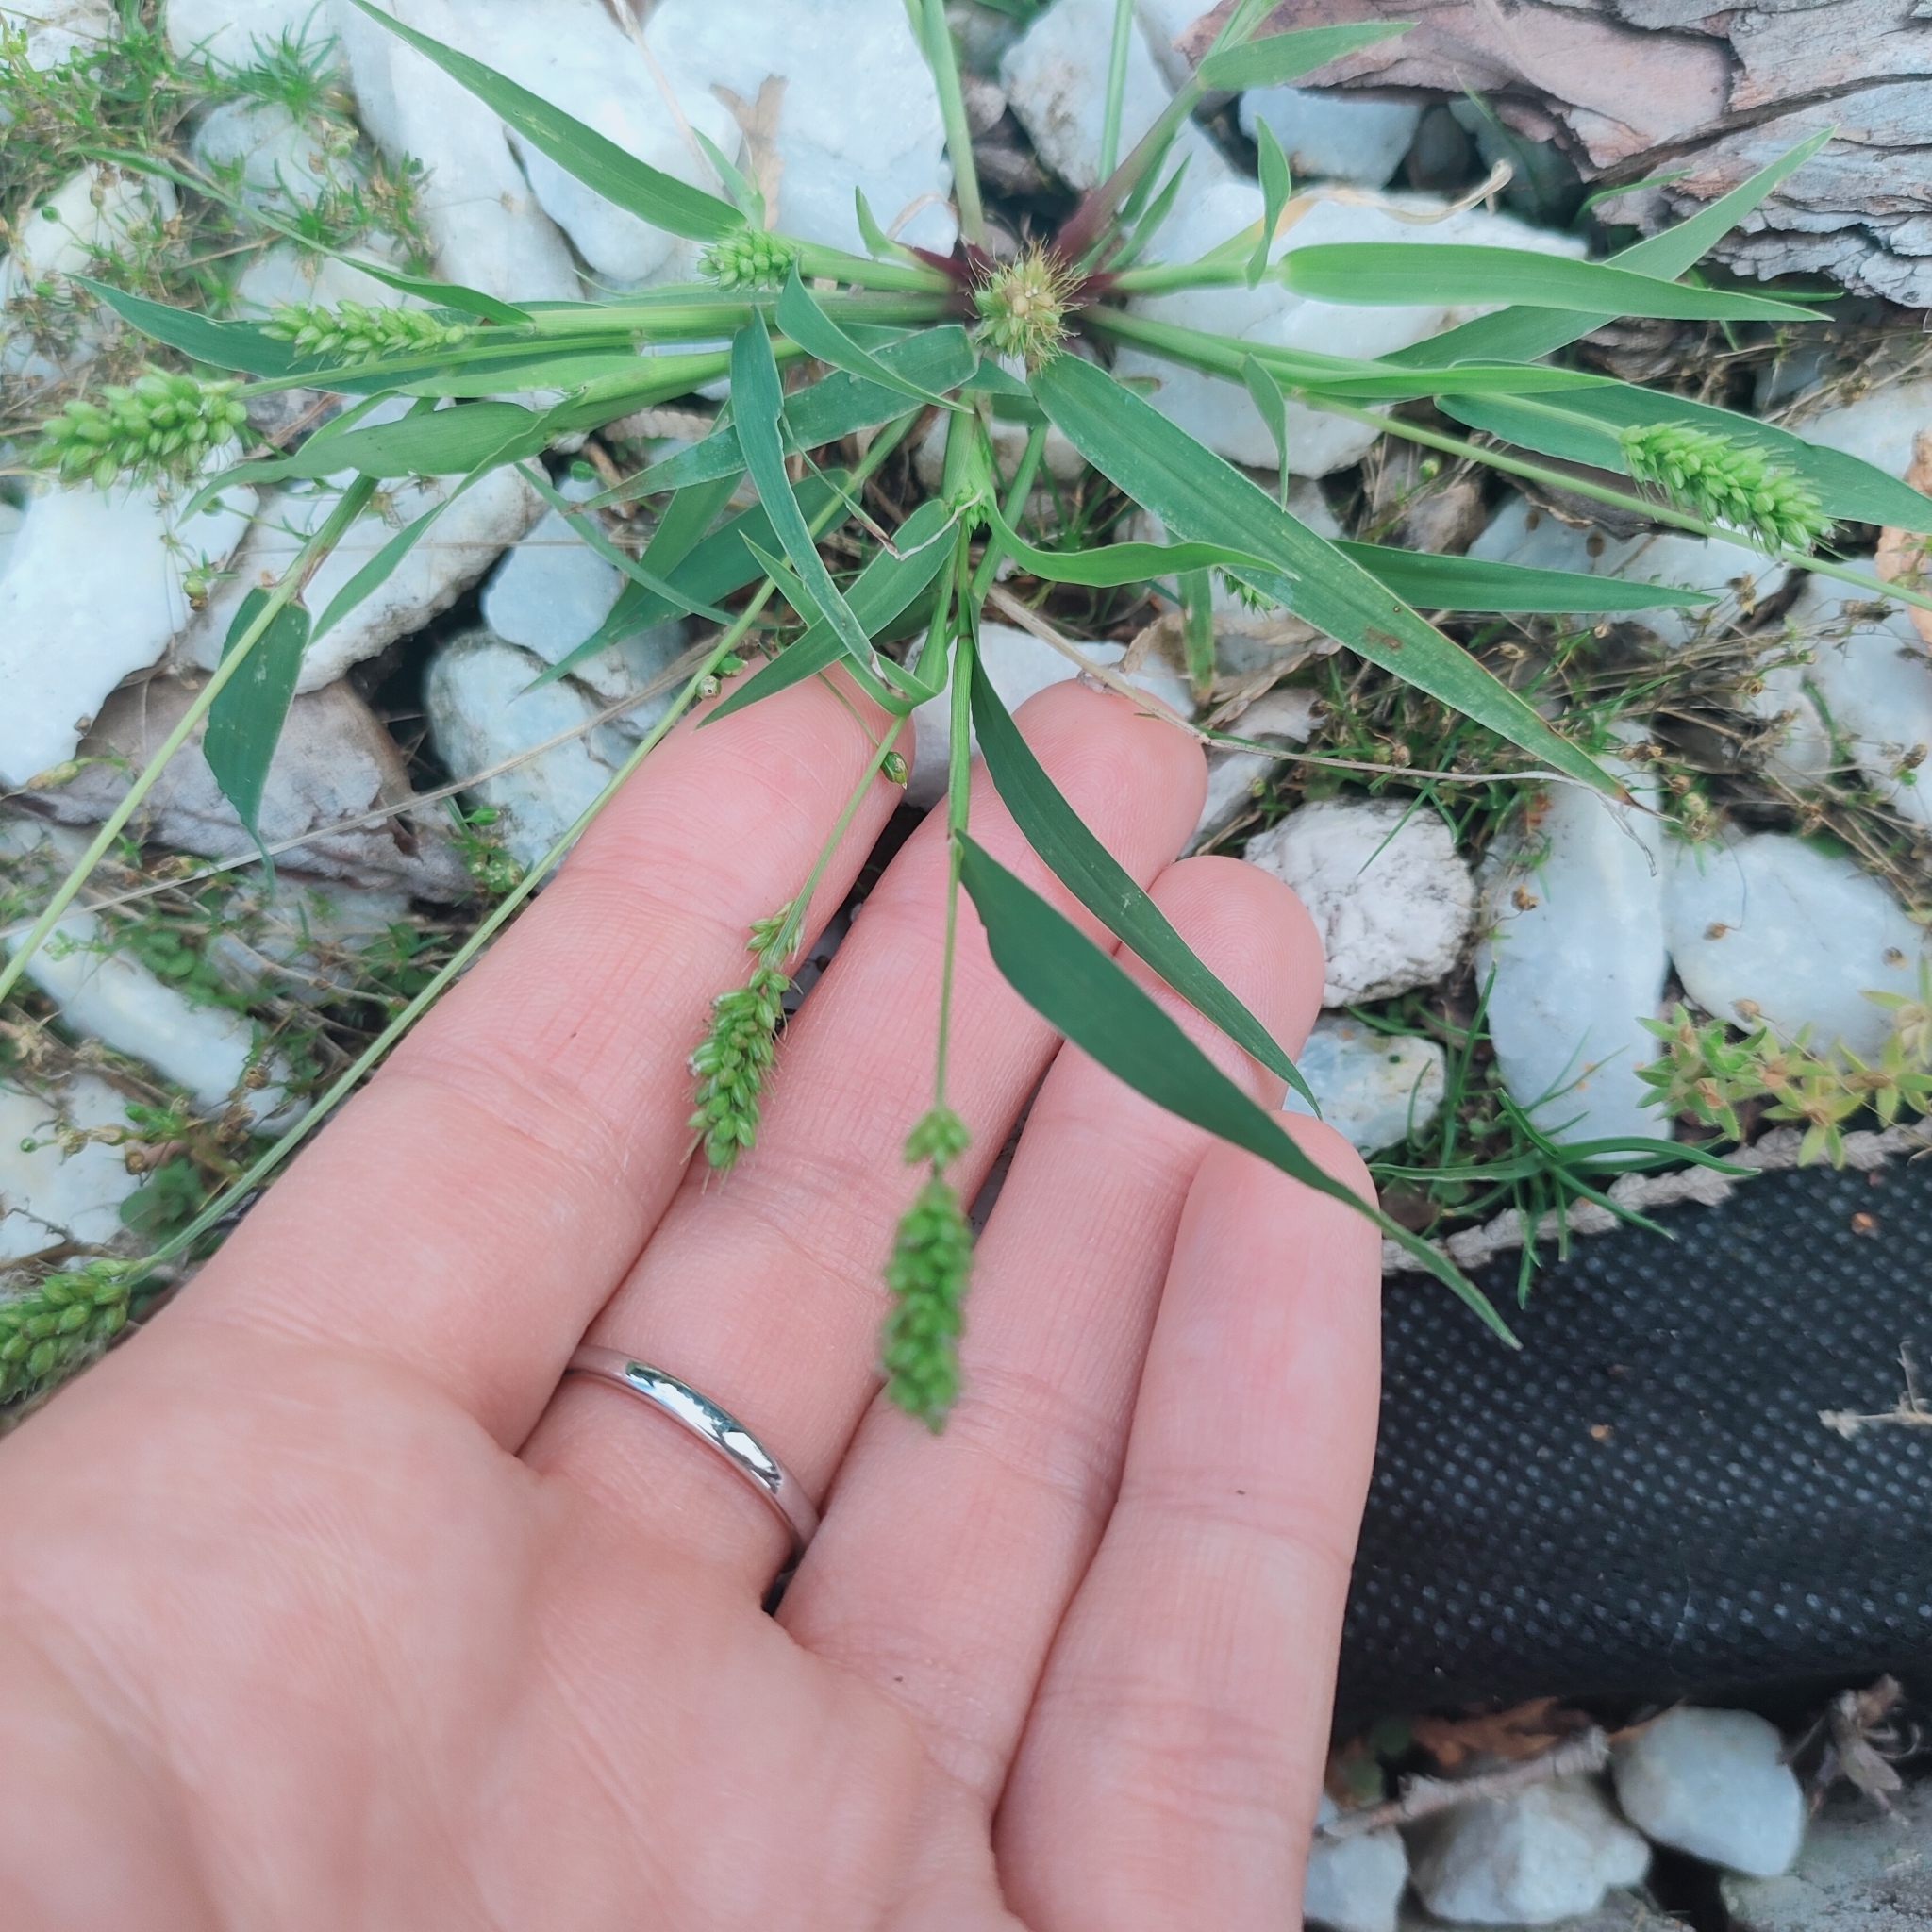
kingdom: Plantae
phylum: Tracheophyta
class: Liliopsida
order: Poales
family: Poaceae
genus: Setaria
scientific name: Setaria viridis
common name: Green bristlegrass
